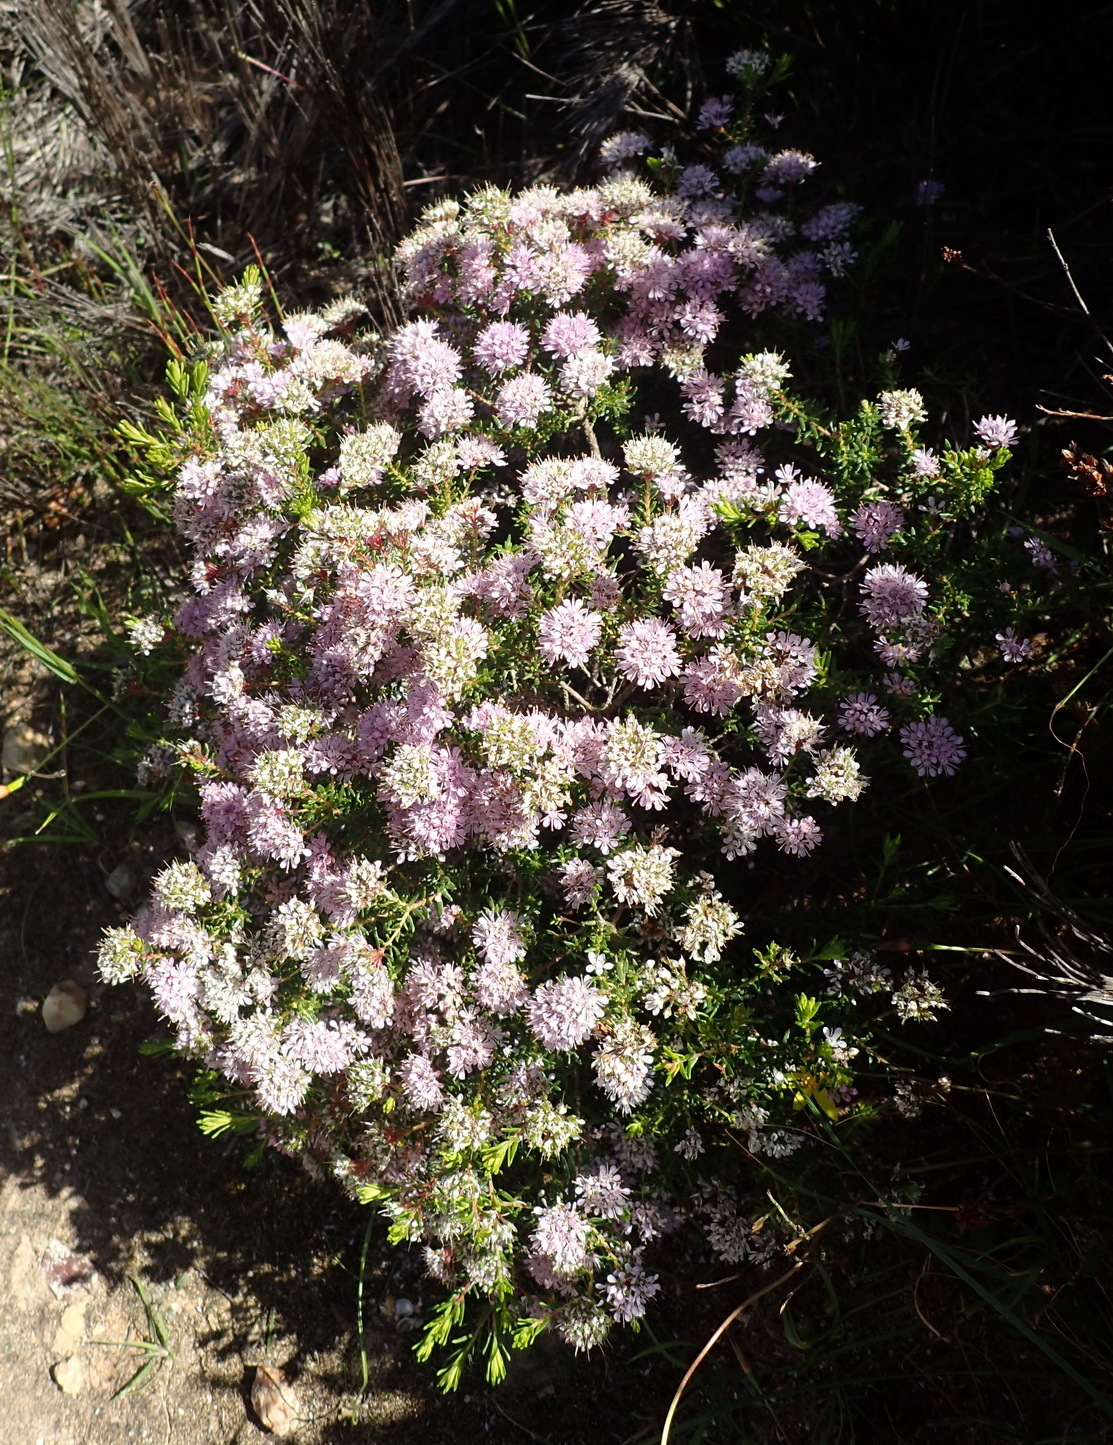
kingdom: Plantae
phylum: Tracheophyta
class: Magnoliopsida
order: Sapindales
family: Rutaceae
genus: Agathosma
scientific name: Agathosma cerefolia
